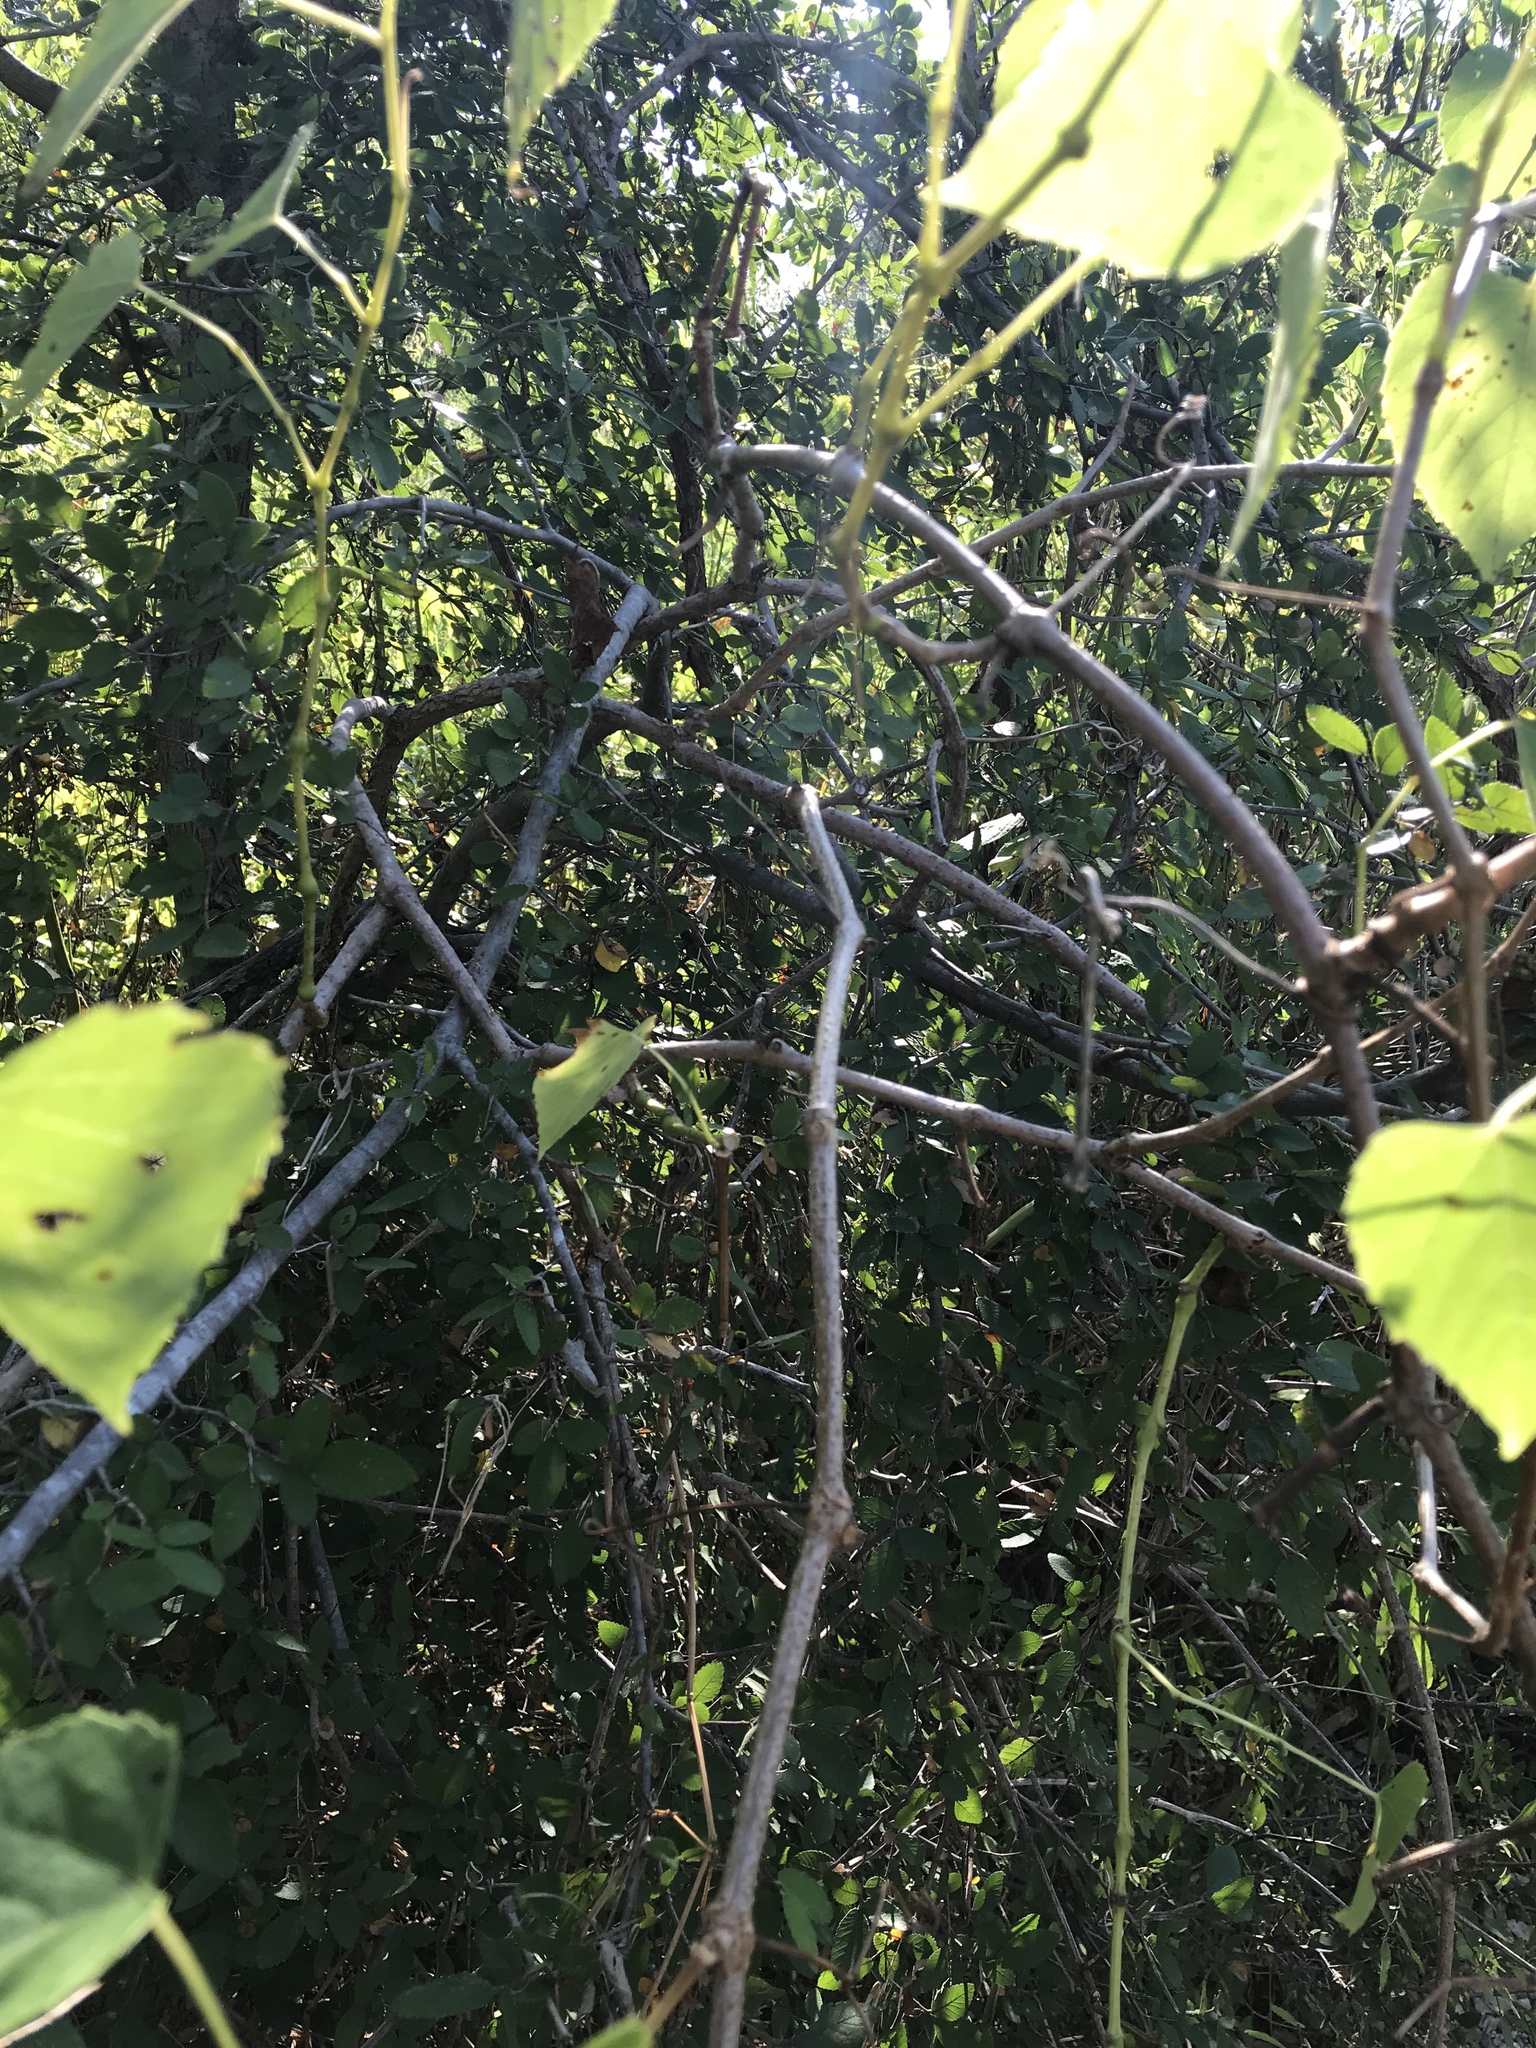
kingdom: Plantae
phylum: Tracheophyta
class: Magnoliopsida
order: Vitales
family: Vitaceae
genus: Ampelopsis
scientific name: Ampelopsis cordata
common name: Heart-leaf ampelopsis
